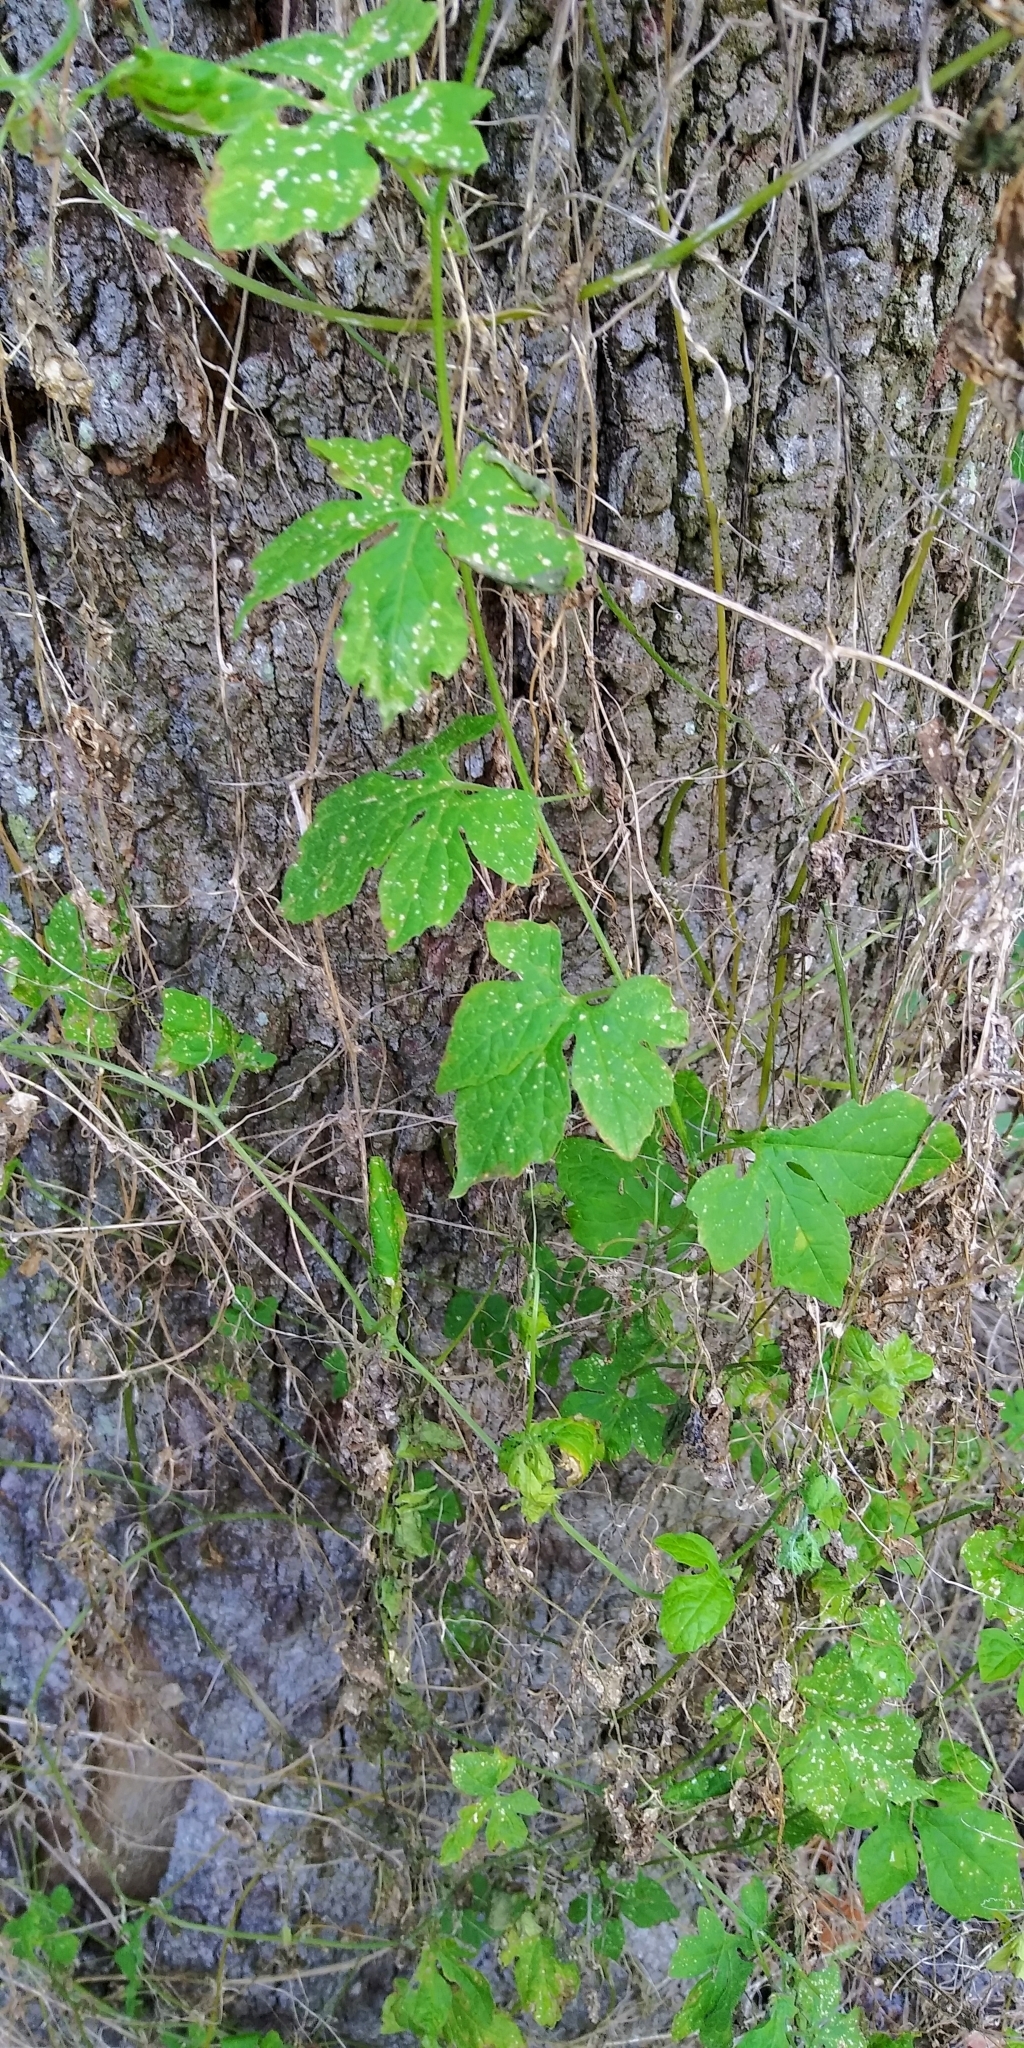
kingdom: Plantae
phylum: Tracheophyta
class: Magnoliopsida
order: Cucurbitales
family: Cucurbitaceae
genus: Momordica
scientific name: Momordica charantia
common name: Balsampear
